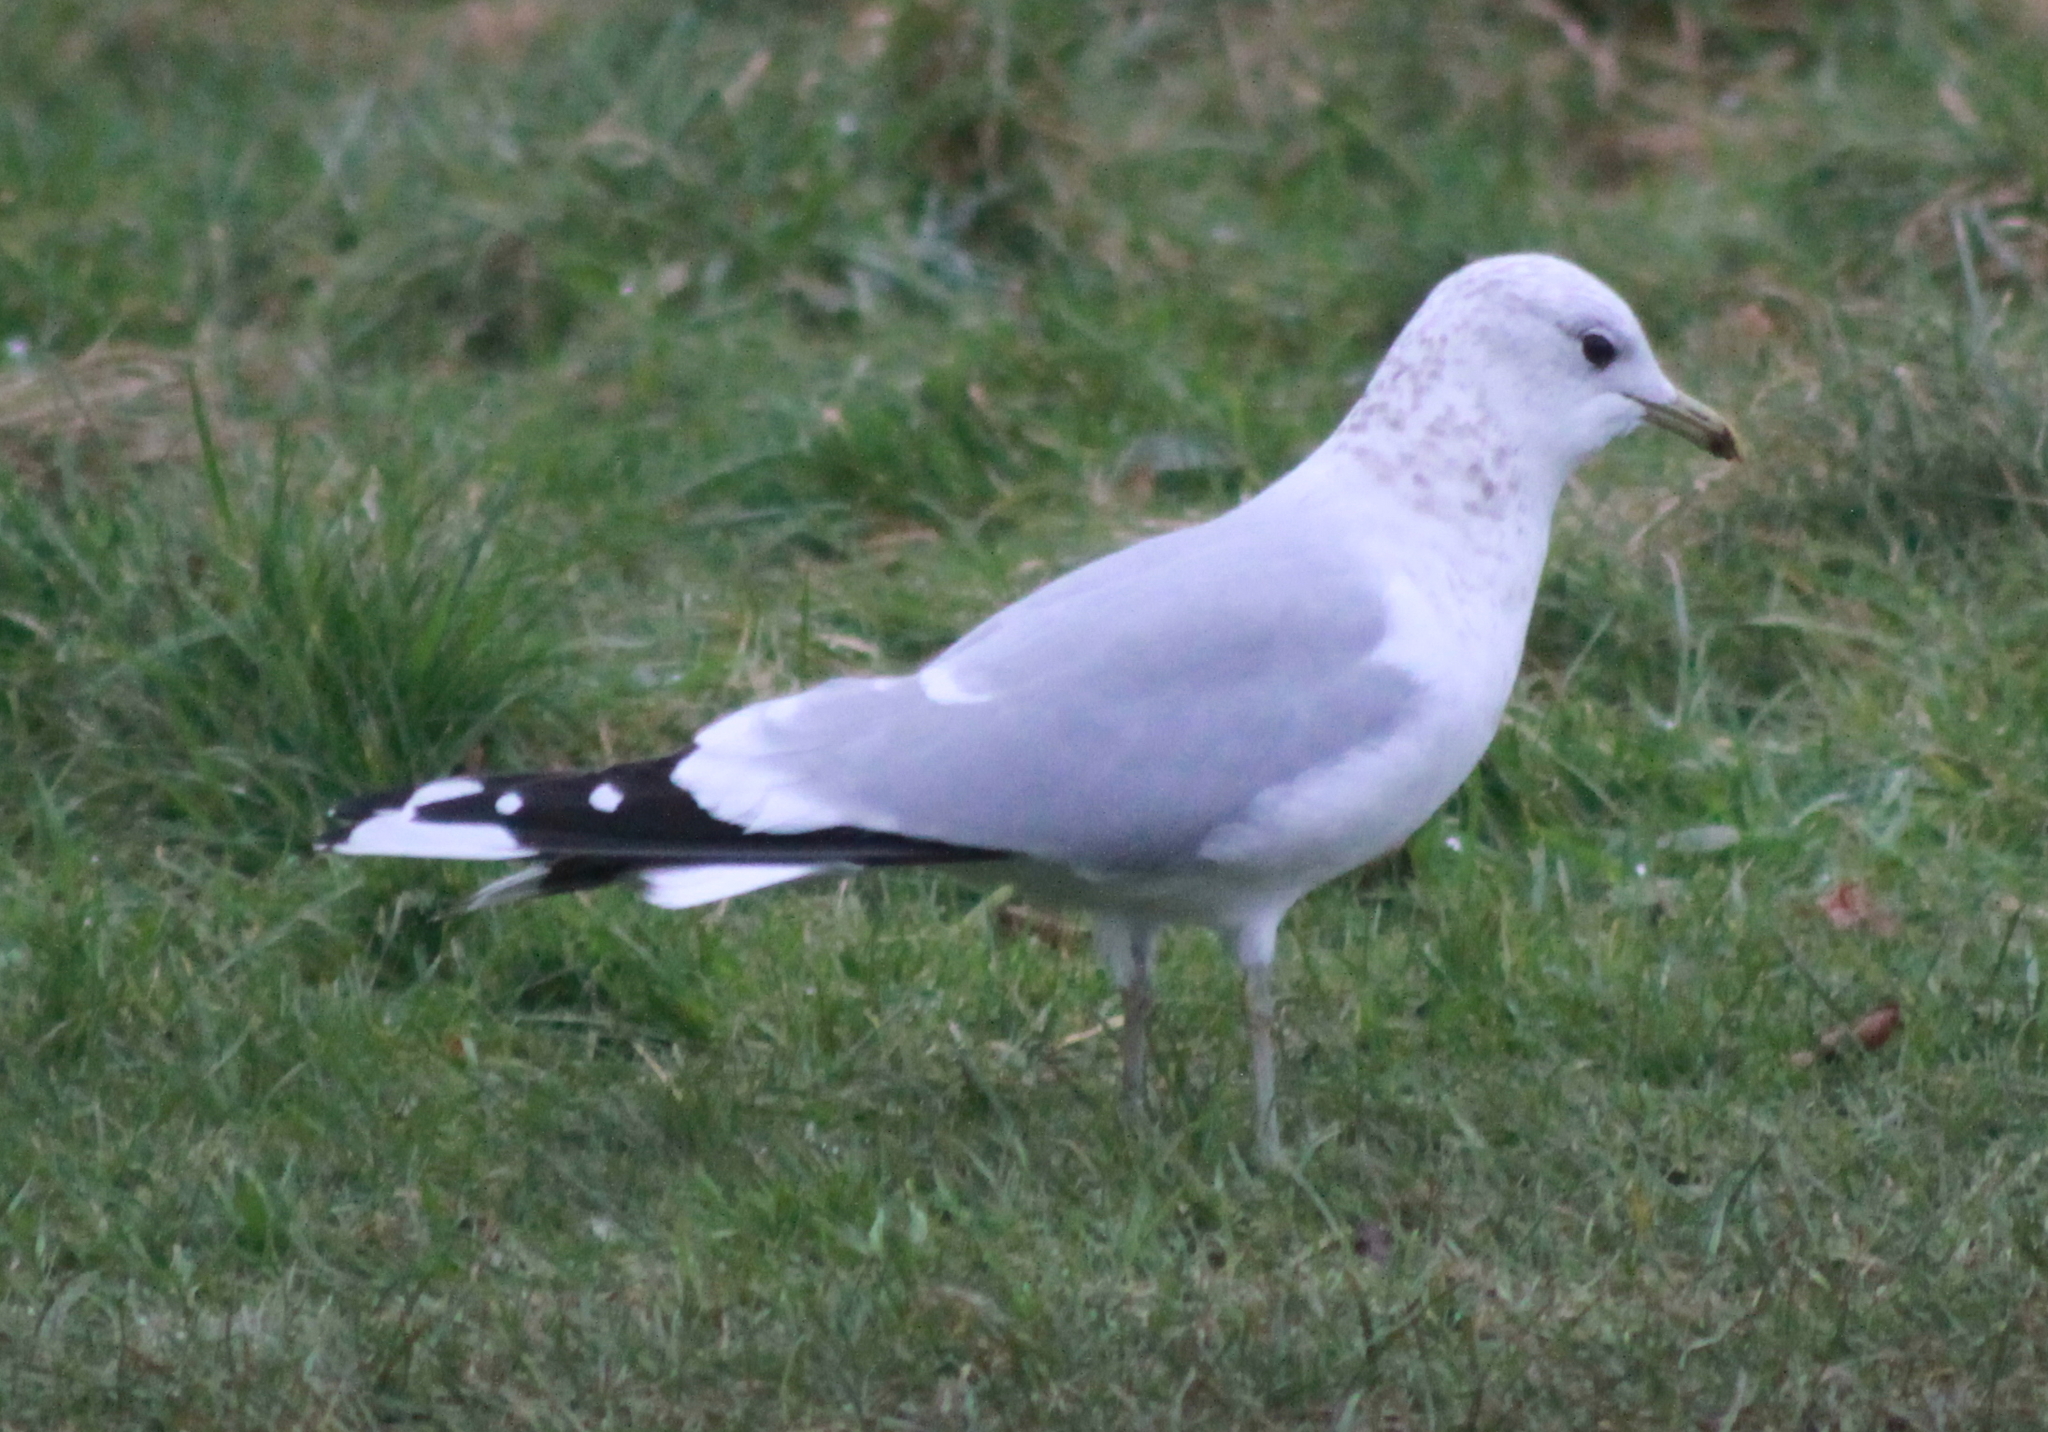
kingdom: Animalia
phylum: Chordata
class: Aves
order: Charadriiformes
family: Laridae
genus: Larus
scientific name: Larus canus
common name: Mew gull
